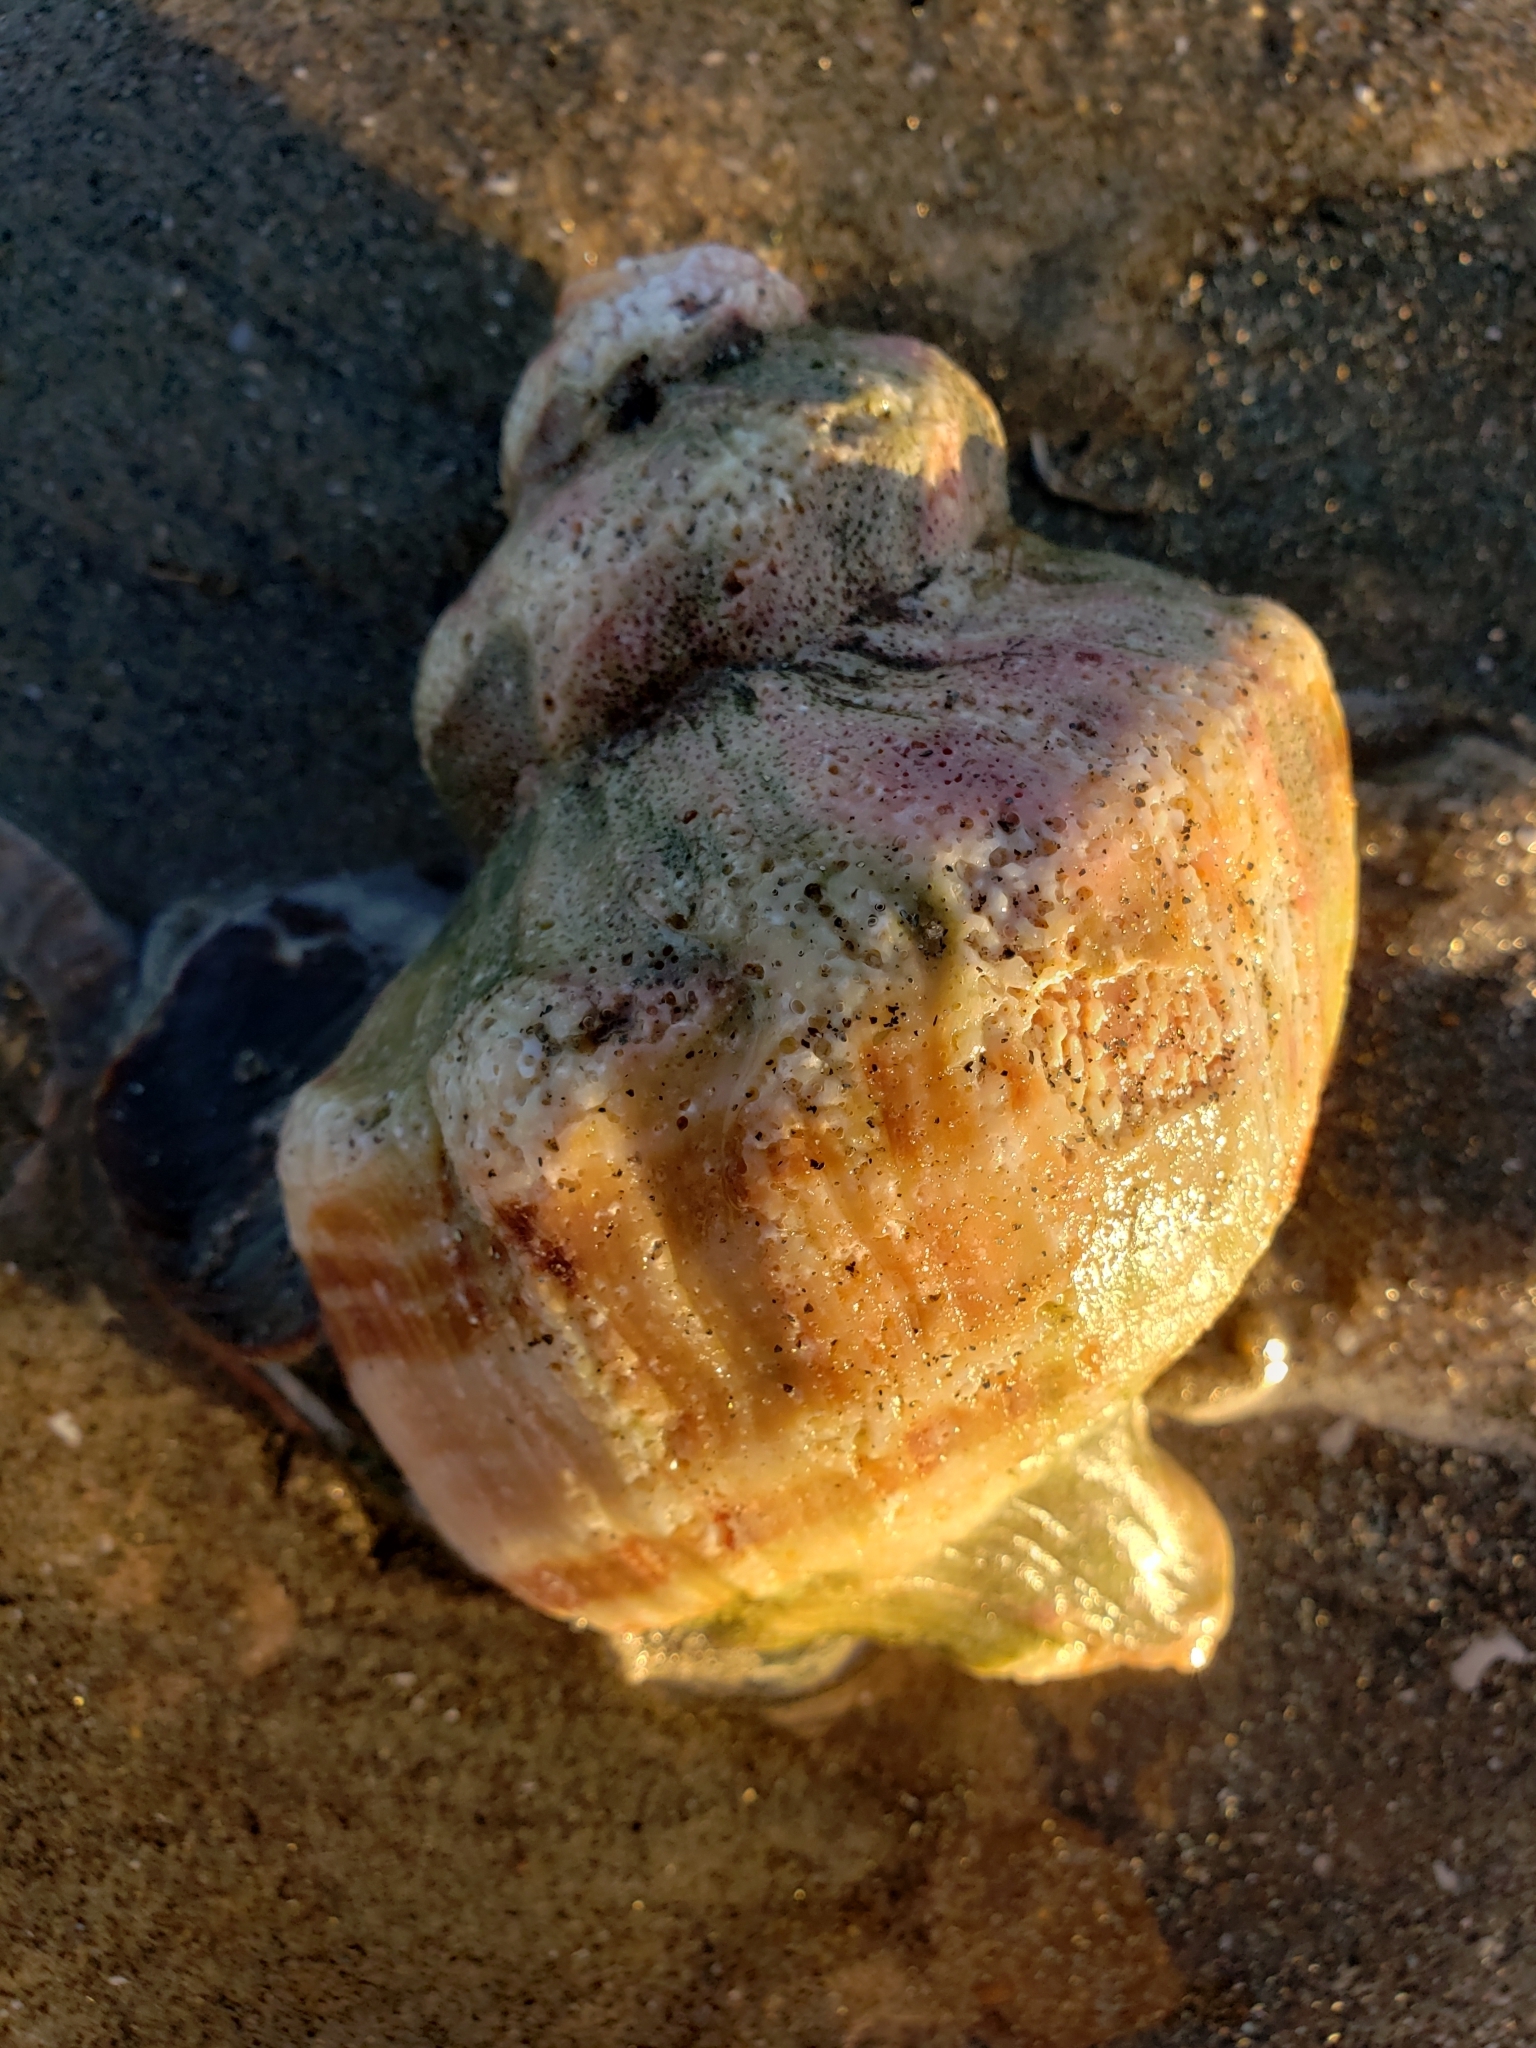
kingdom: Animalia
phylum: Mollusca
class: Gastropoda
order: Neogastropoda
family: Muricidae
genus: Forreria
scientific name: Forreria belcheri
